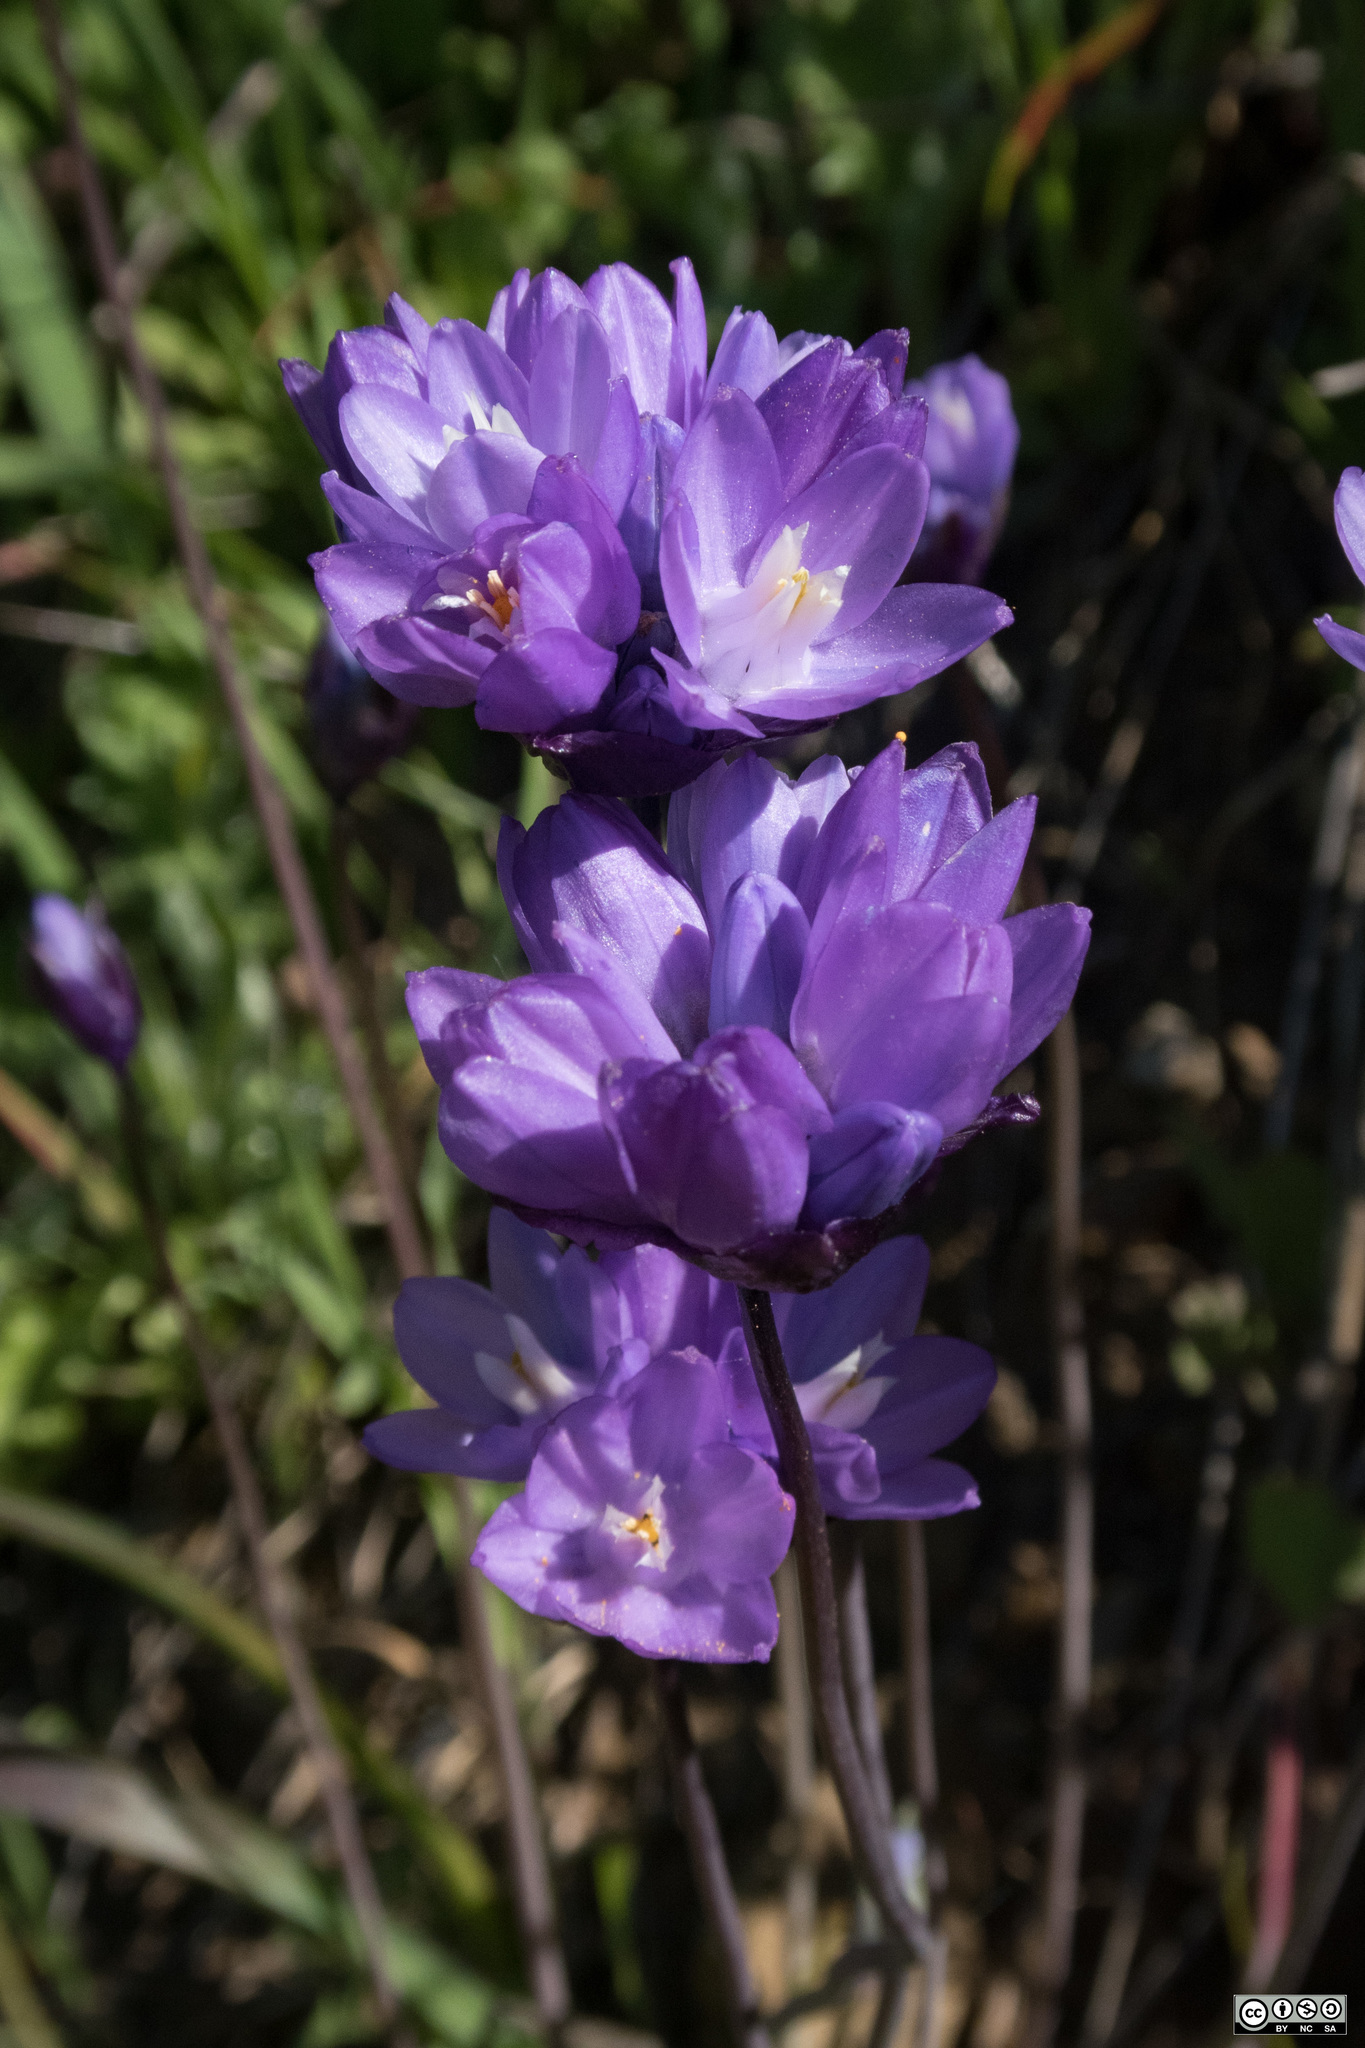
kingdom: Plantae
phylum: Tracheophyta
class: Liliopsida
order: Asparagales
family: Asparagaceae
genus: Dipterostemon
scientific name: Dipterostemon capitatus
